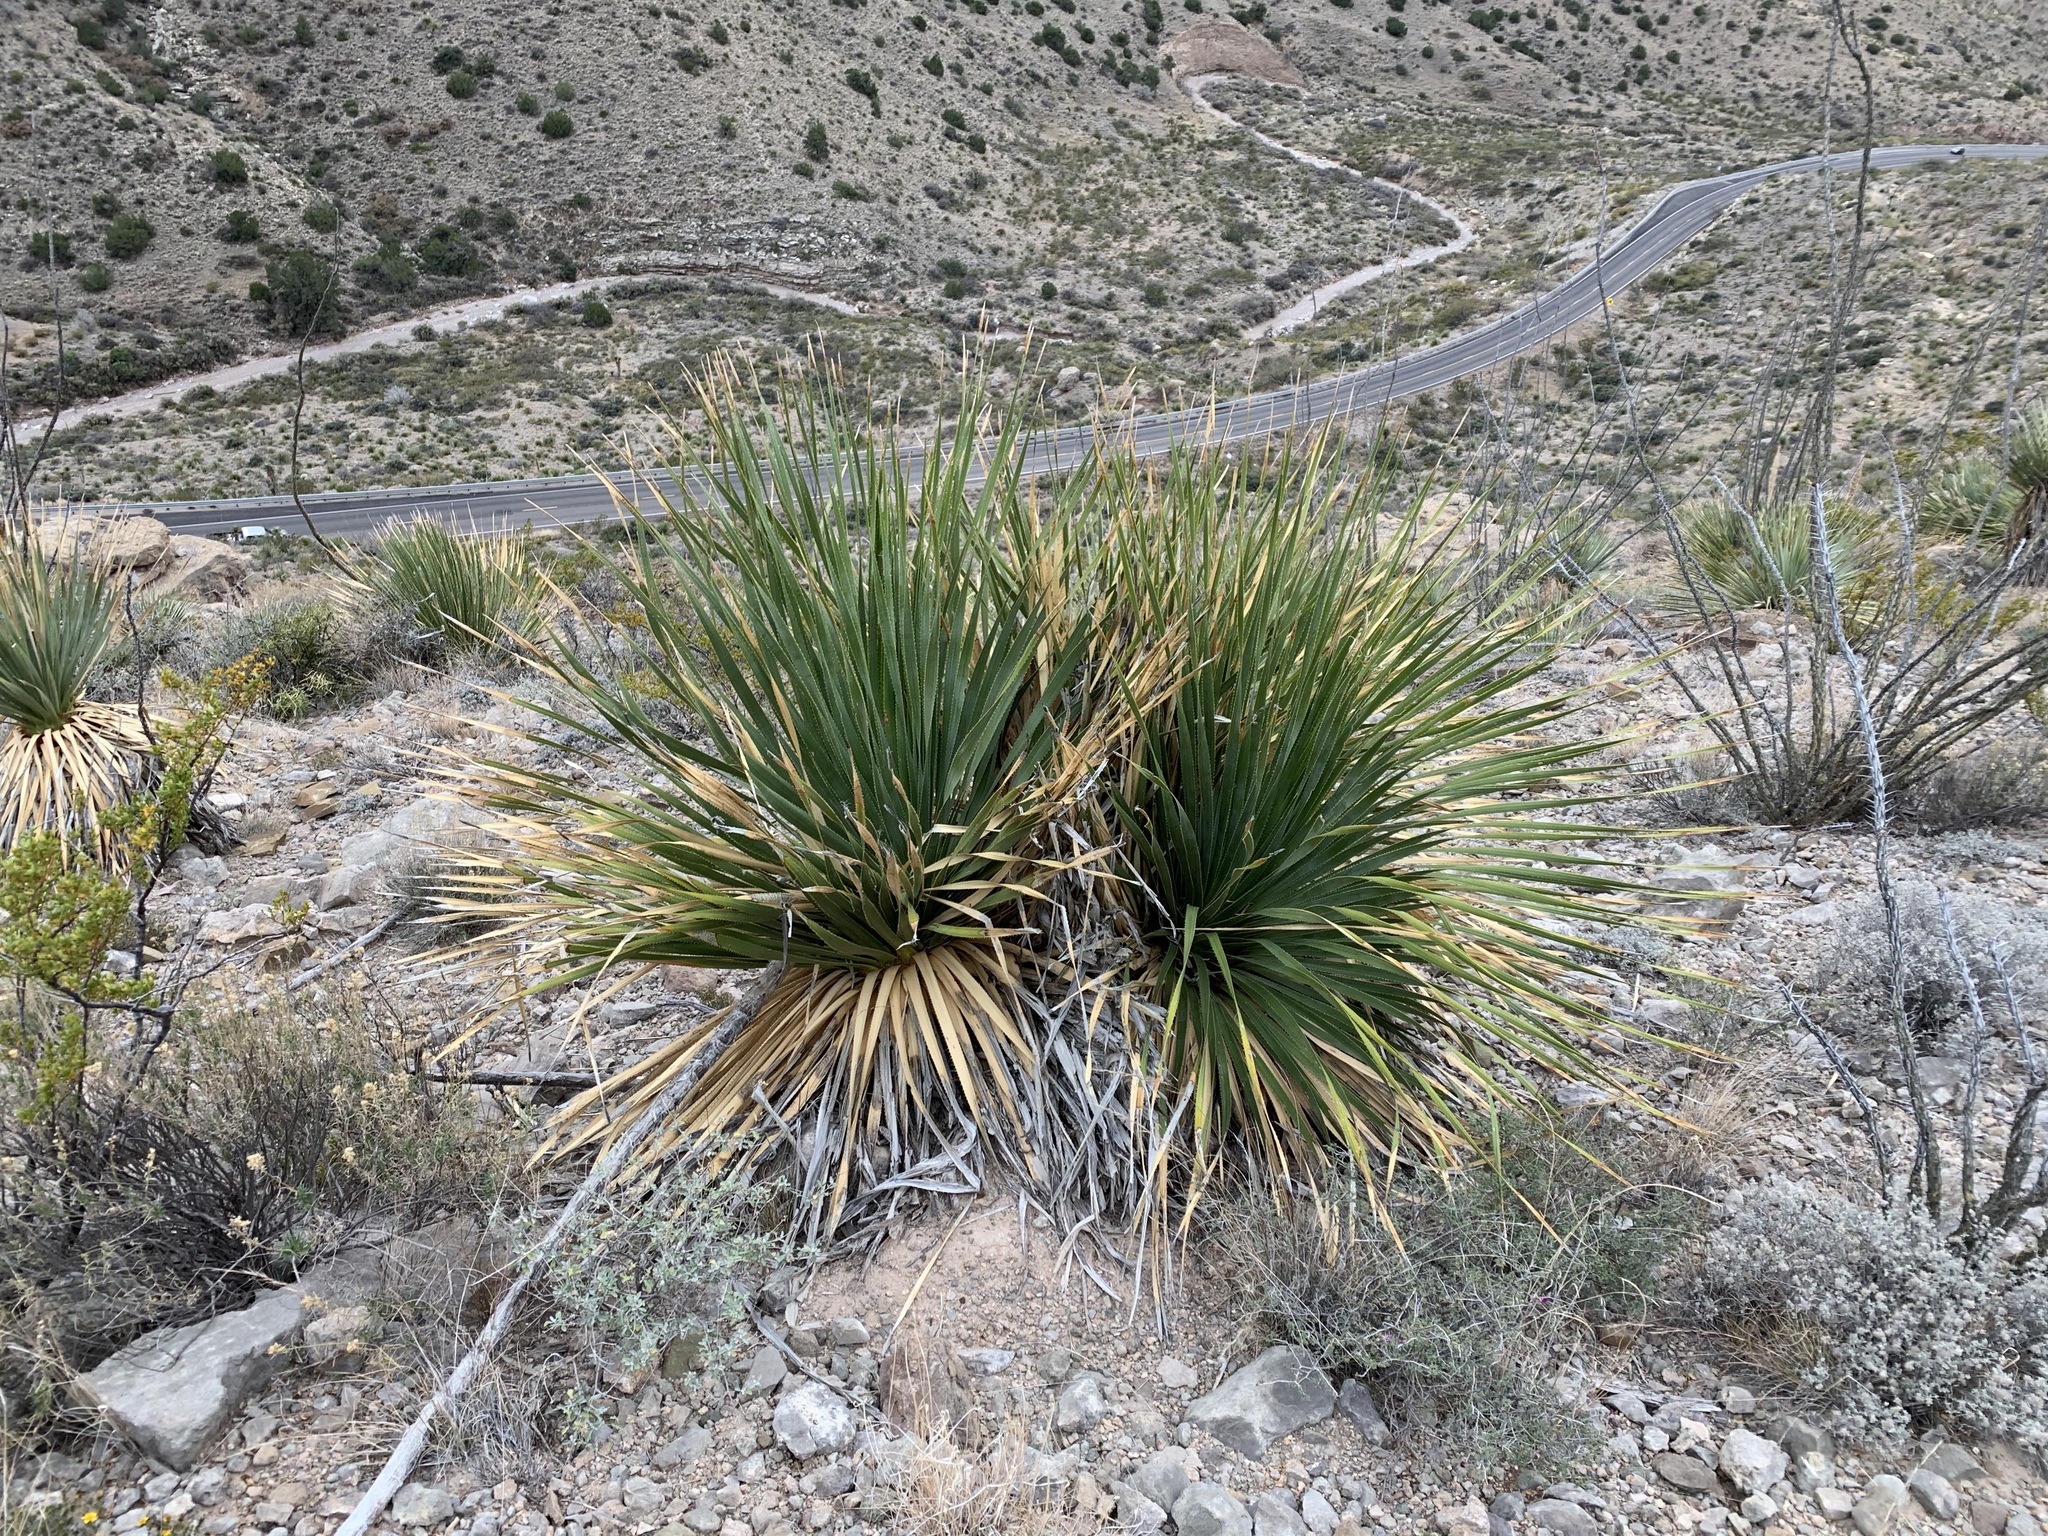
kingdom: Plantae
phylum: Tracheophyta
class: Liliopsida
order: Asparagales
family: Asparagaceae
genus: Dasylirion
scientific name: Dasylirion wheeleri
